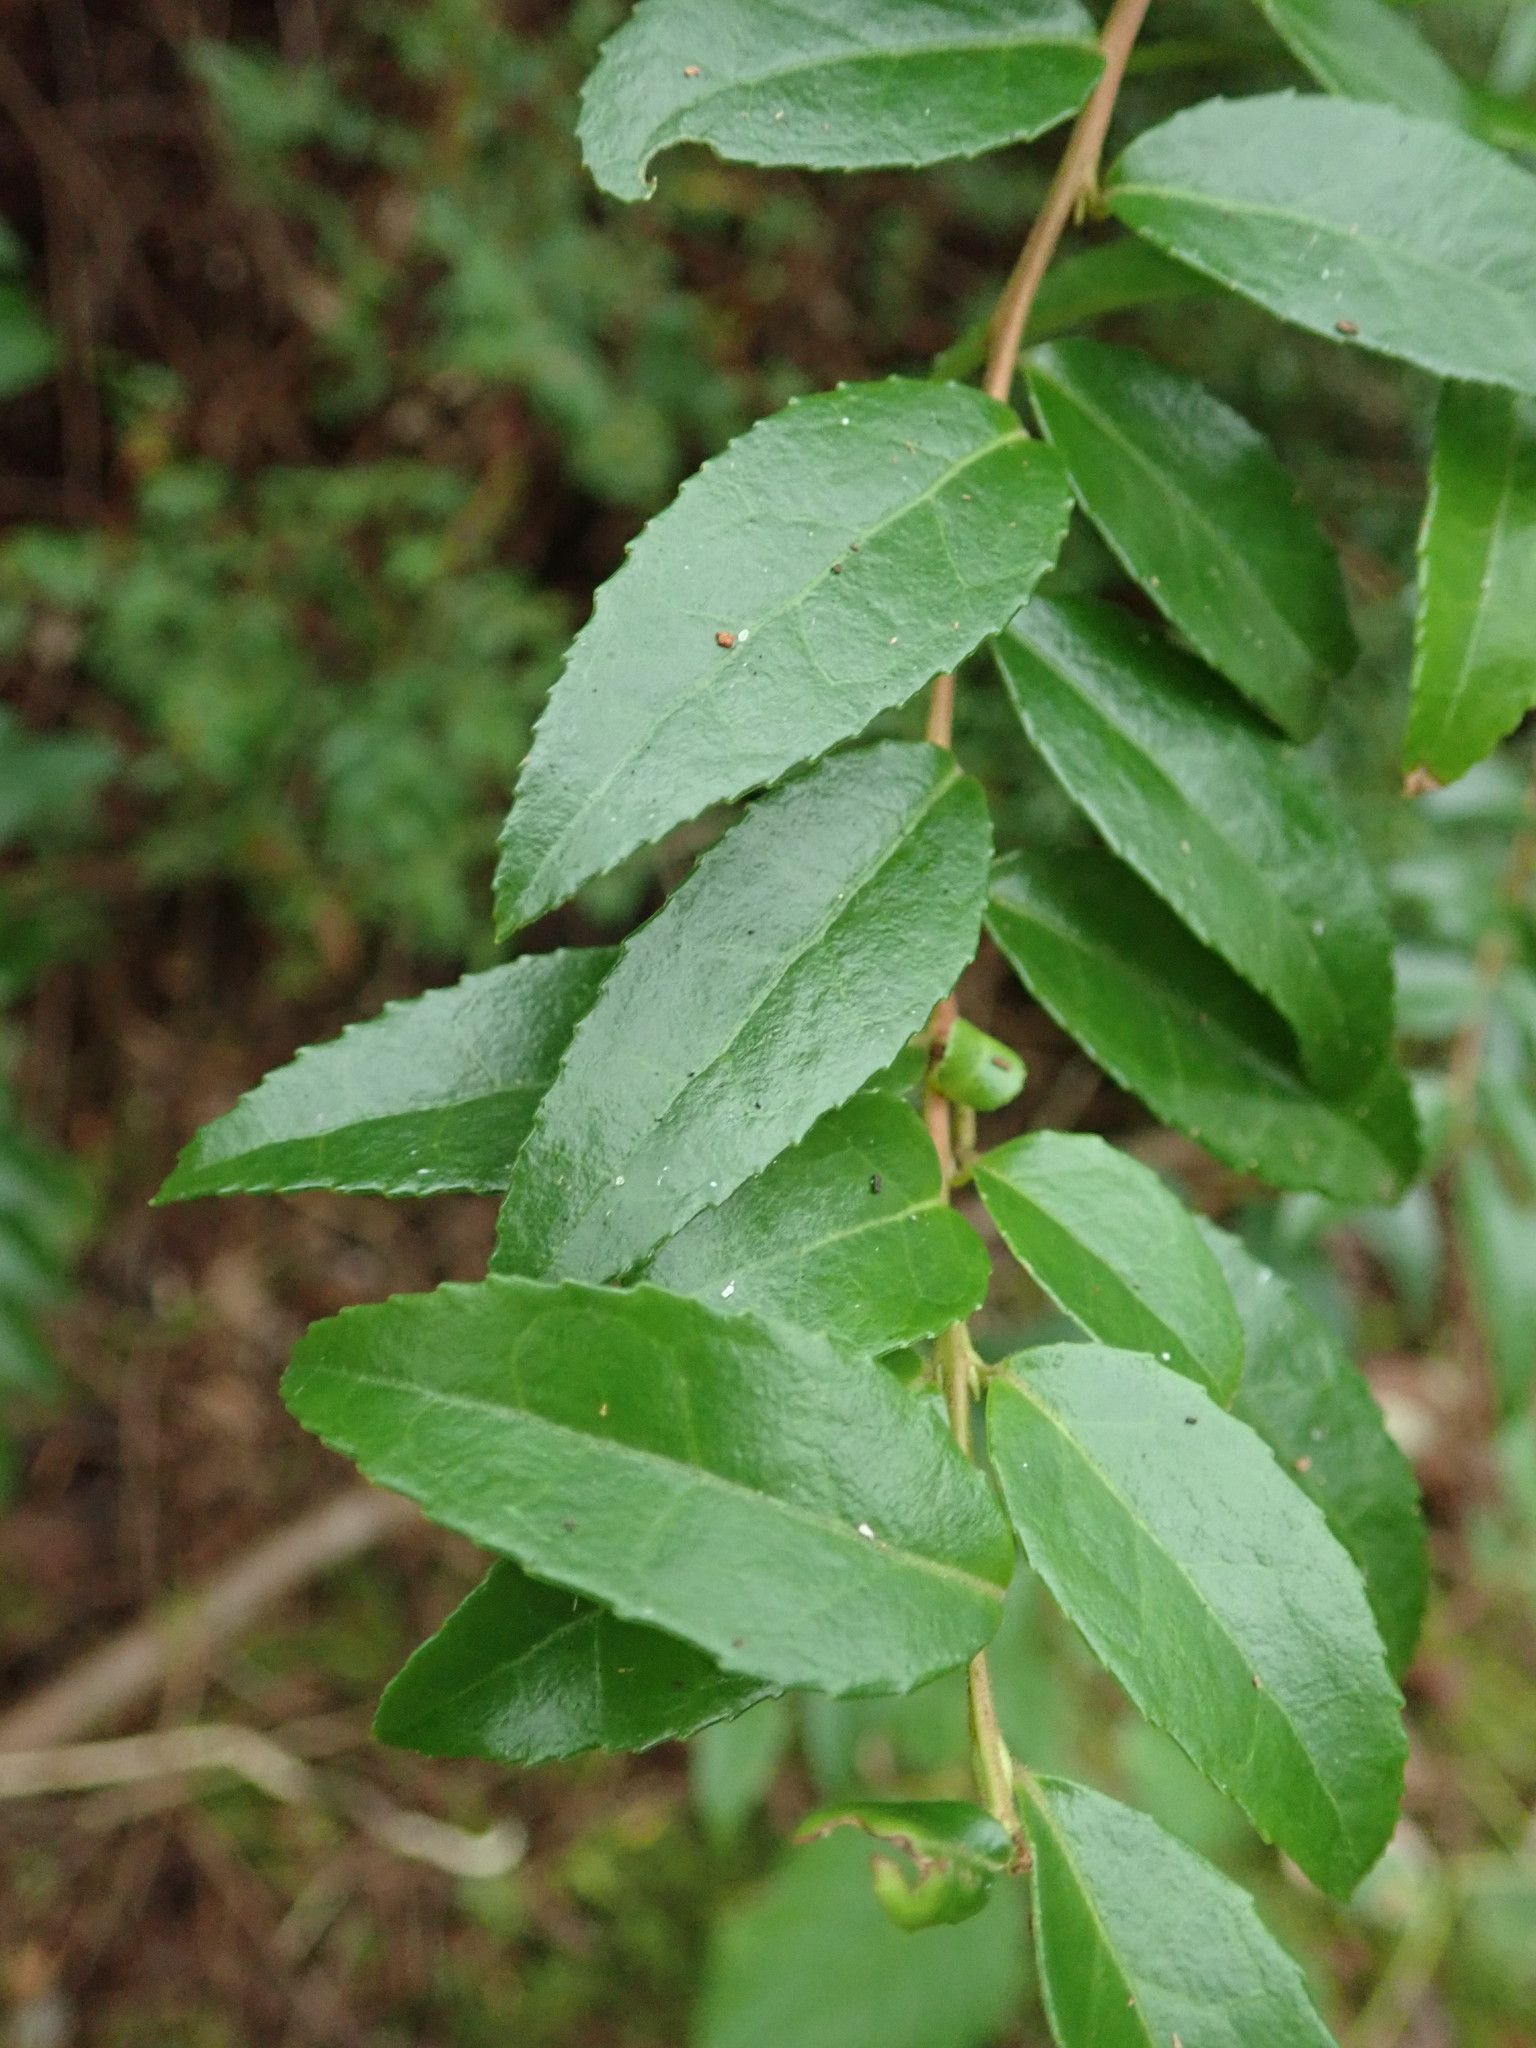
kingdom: Plantae
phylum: Tracheophyta
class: Magnoliopsida
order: Ericales
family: Ericaceae
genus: Vaccinium
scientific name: Vaccinium ovatum
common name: California-huckleberry
